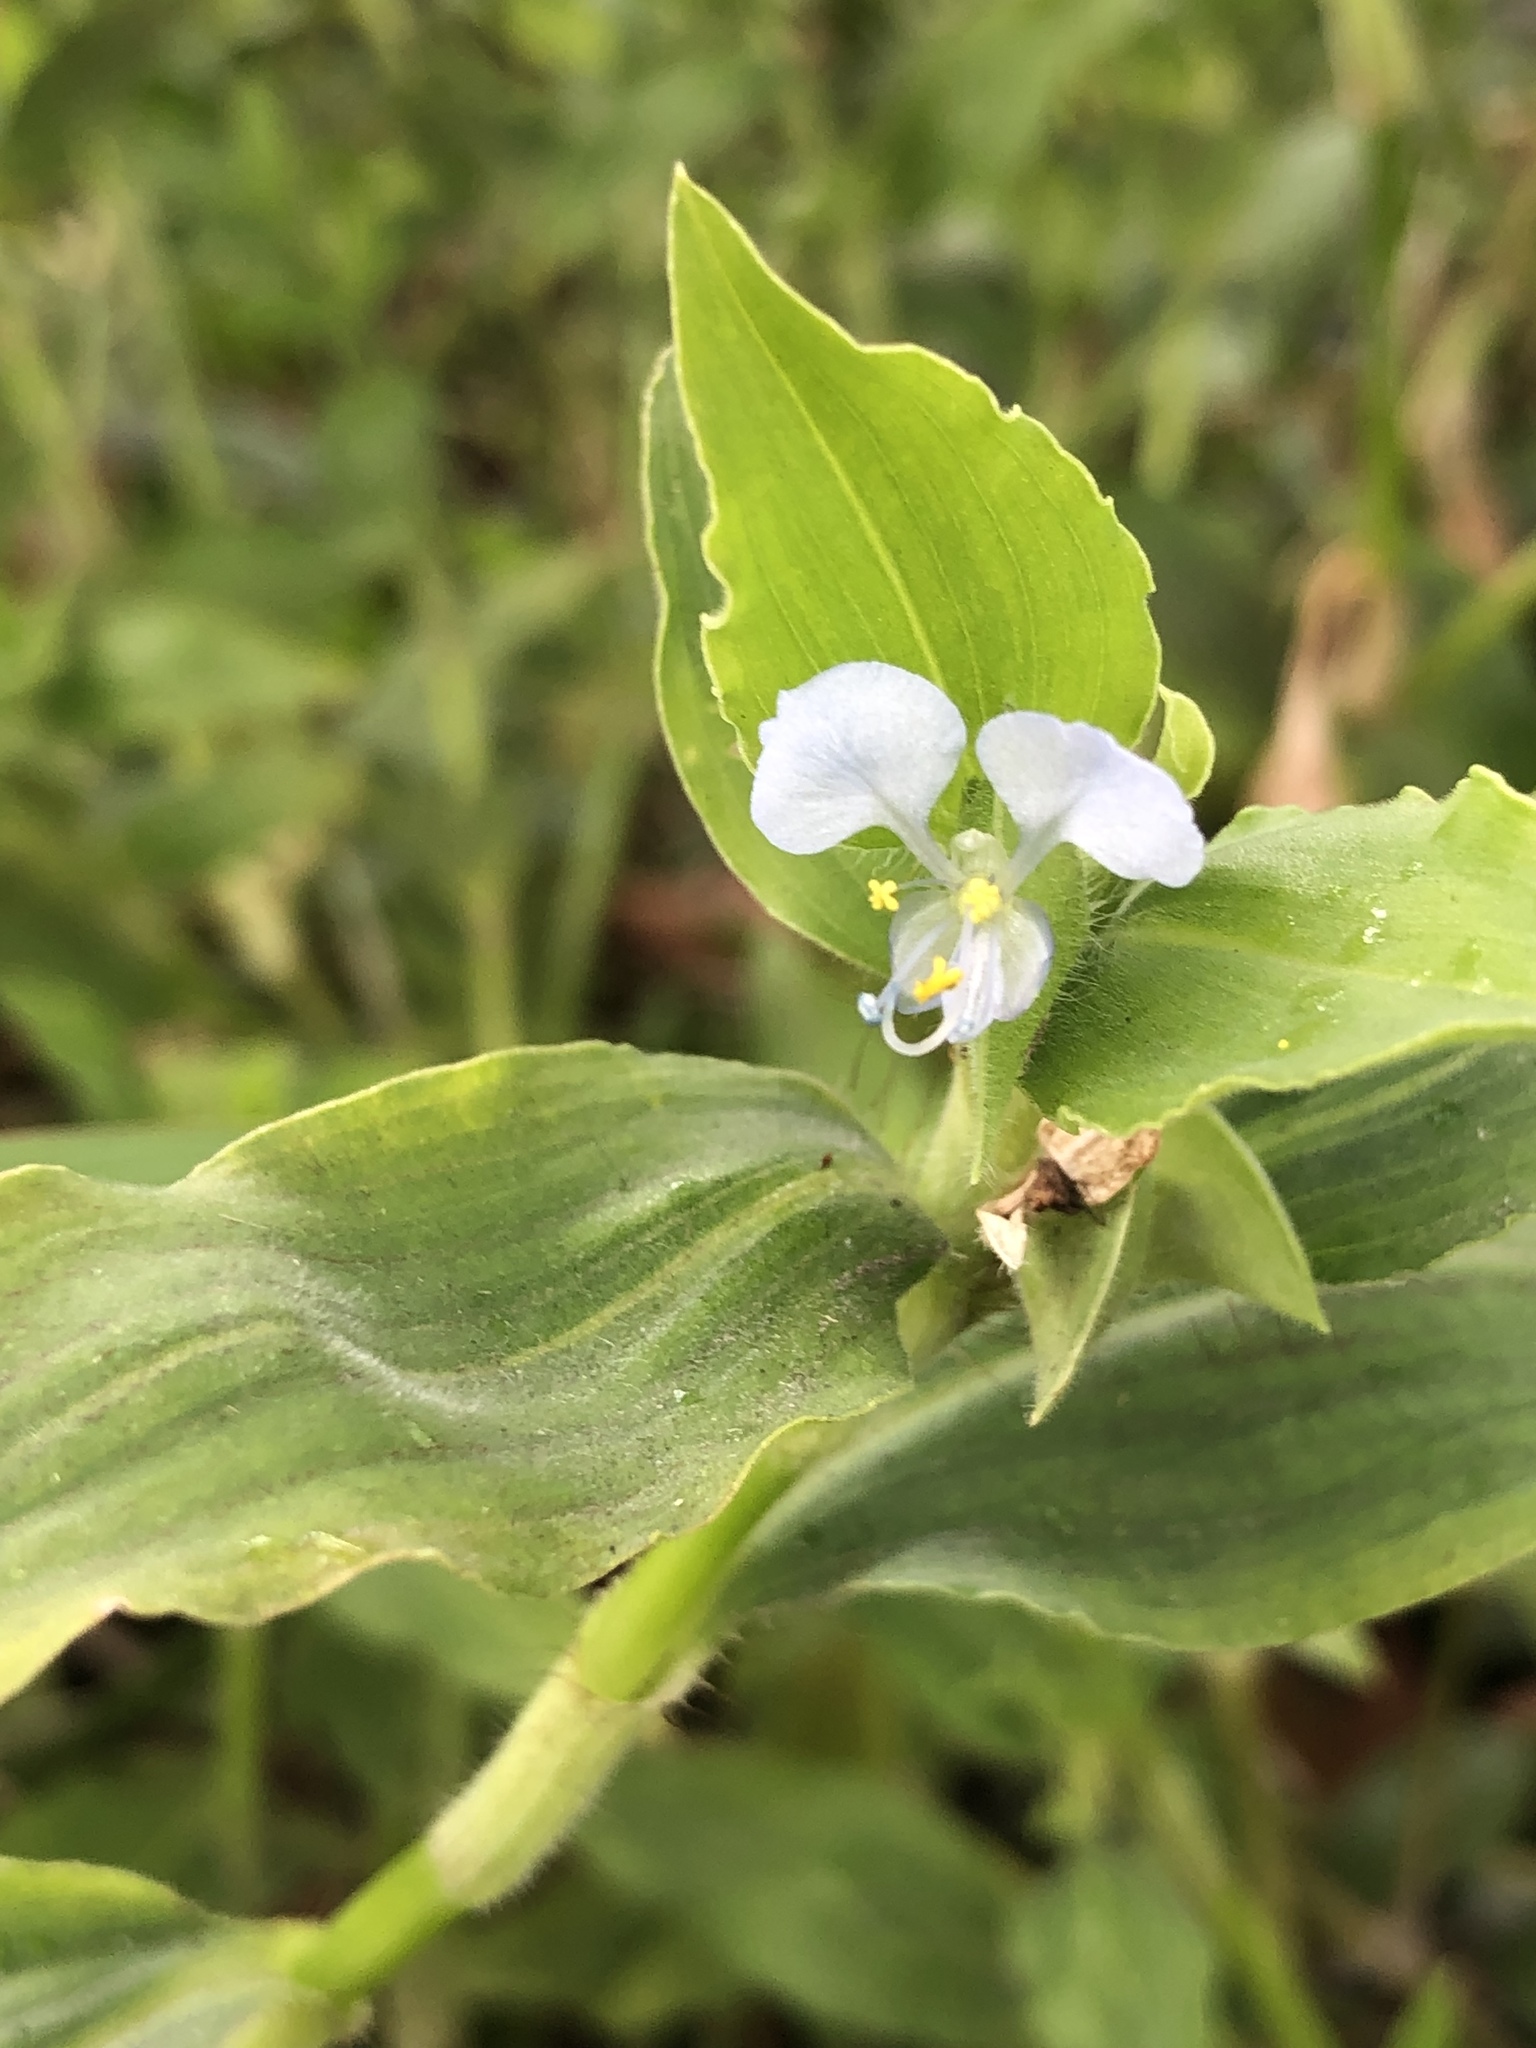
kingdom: Plantae
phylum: Tracheophyta
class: Liliopsida
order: Commelinales
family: Commelinaceae
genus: Commelina
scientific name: Commelina benghalensis
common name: Jio
